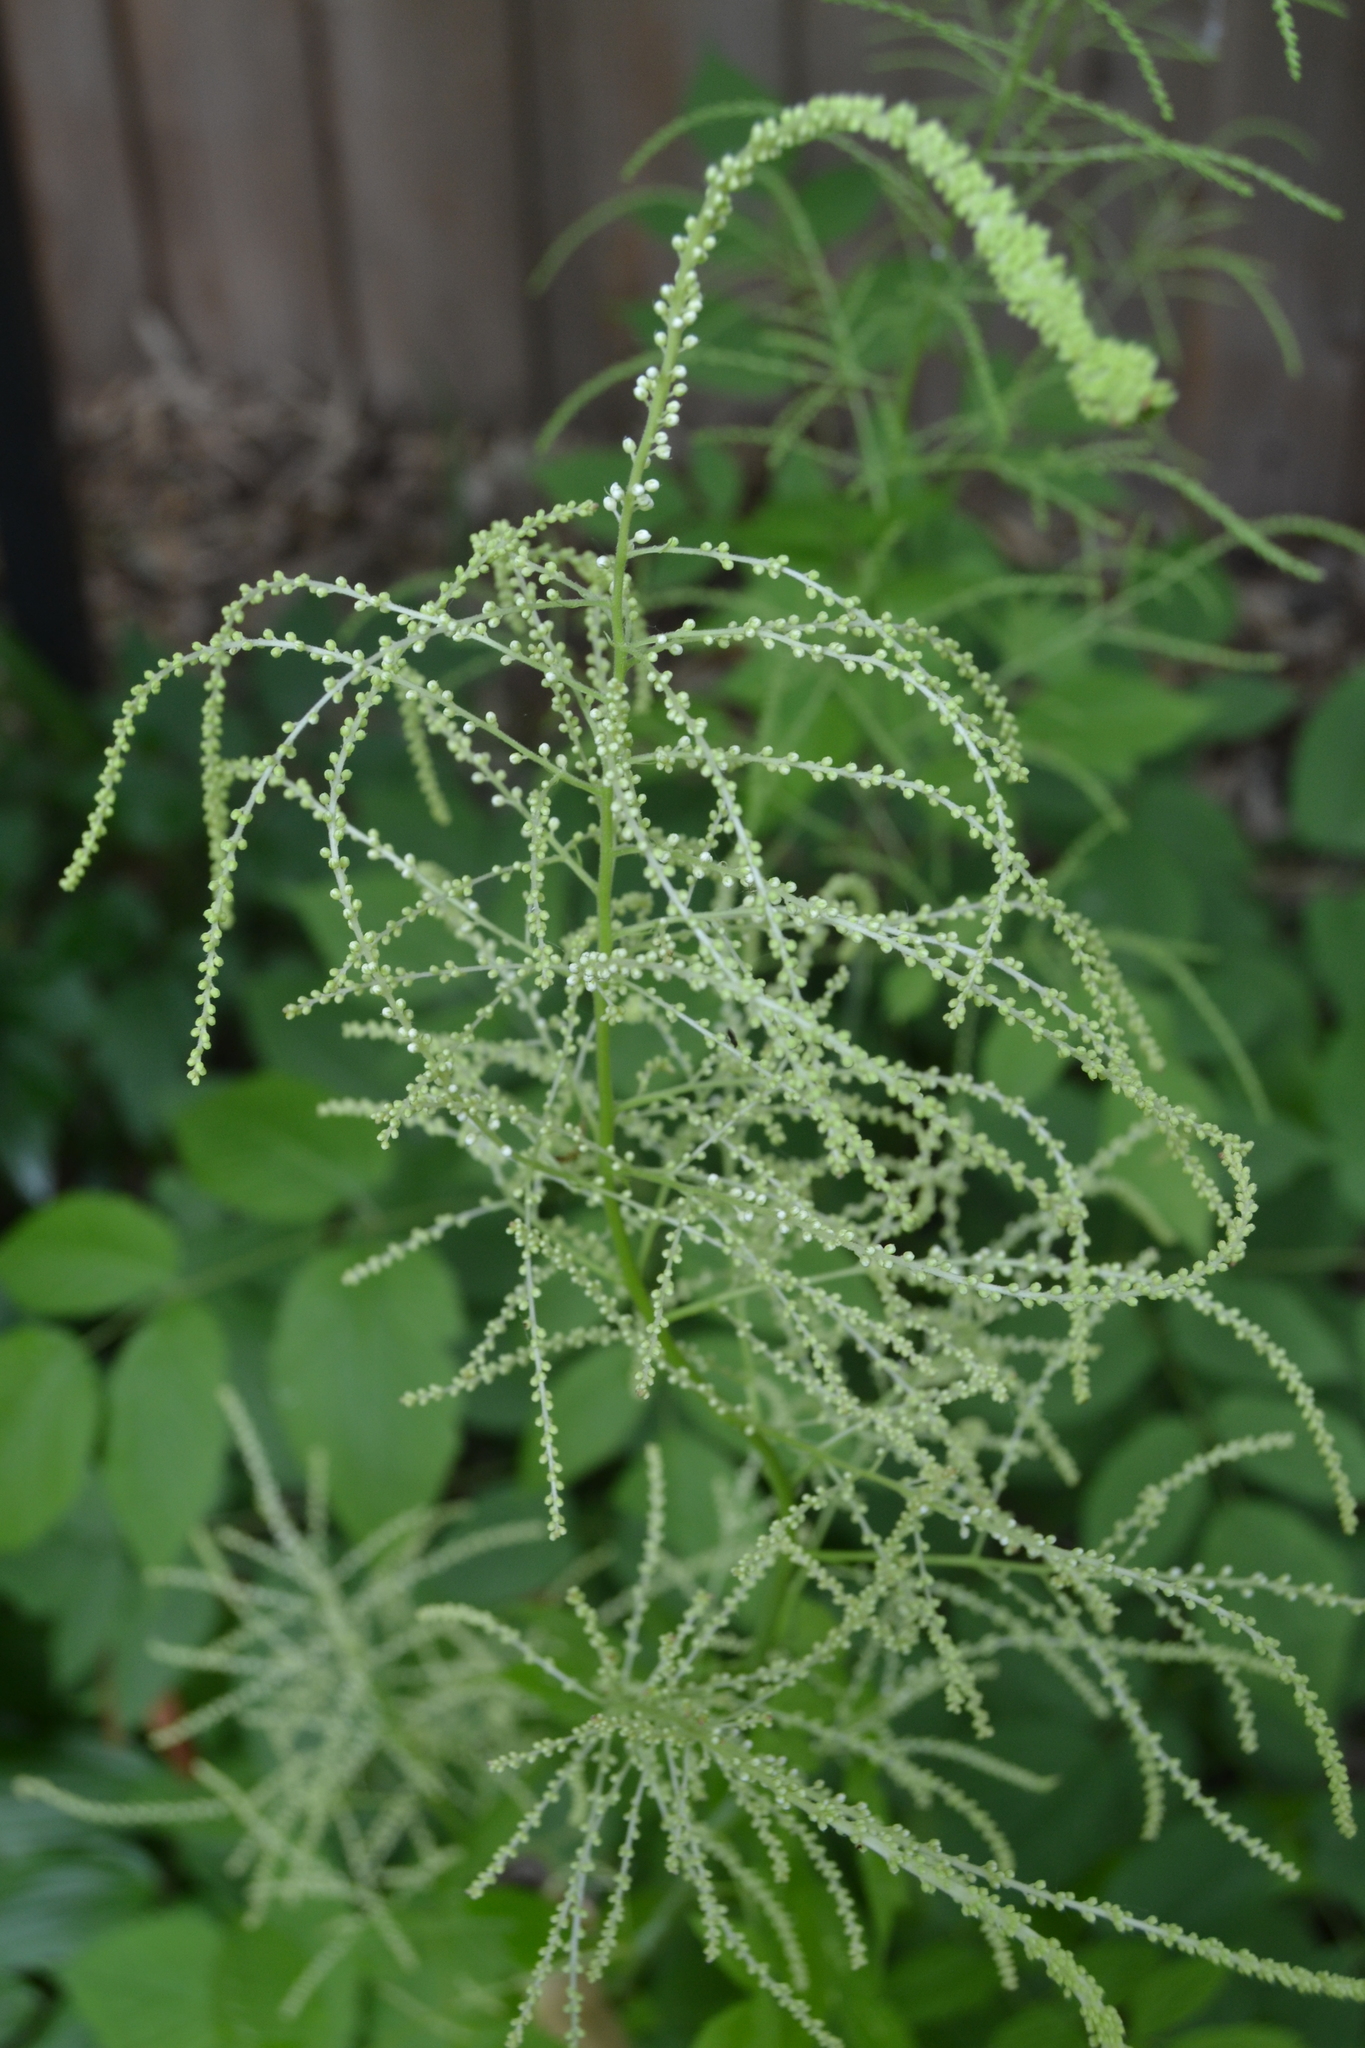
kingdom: Plantae
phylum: Tracheophyta
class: Magnoliopsida
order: Rosales
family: Rosaceae
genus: Aruncus
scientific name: Aruncus dioicus
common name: Buck's-beard
